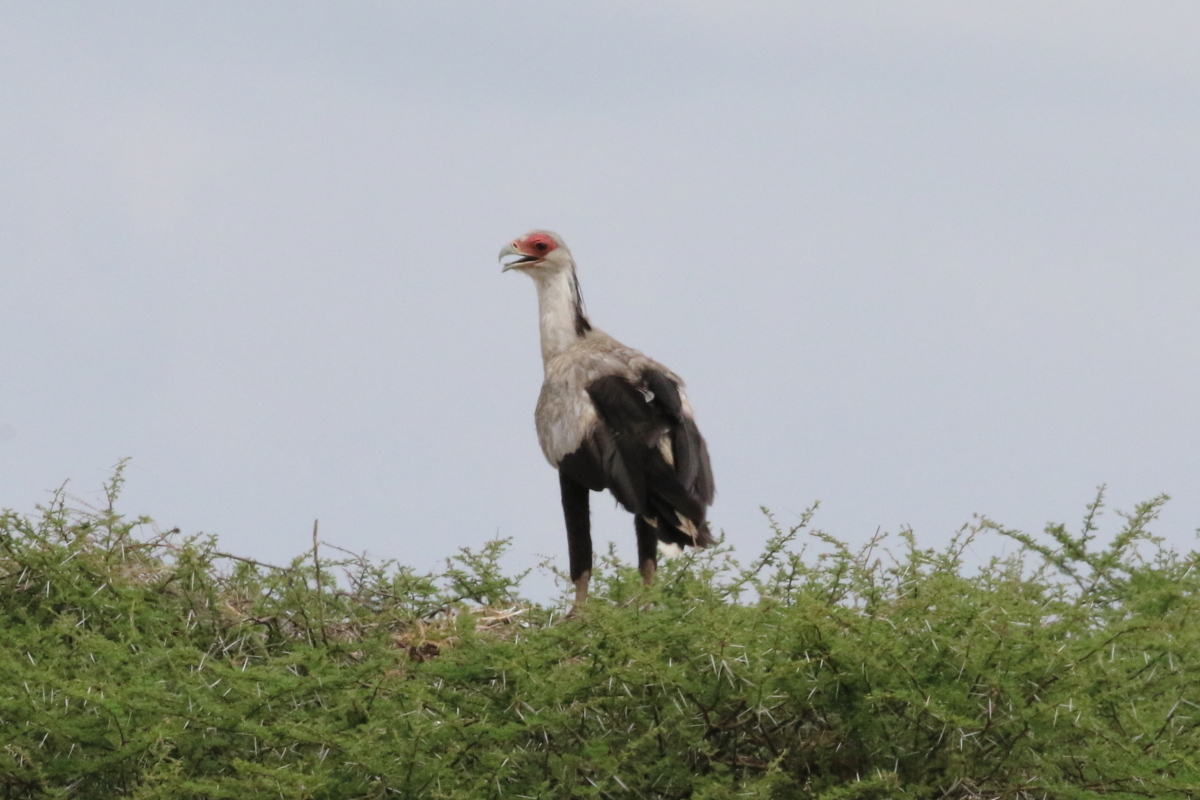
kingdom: Animalia
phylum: Chordata
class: Aves
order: Accipitriformes
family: Sagittariidae
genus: Sagittarius
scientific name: Sagittarius serpentarius
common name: Secretarybird
